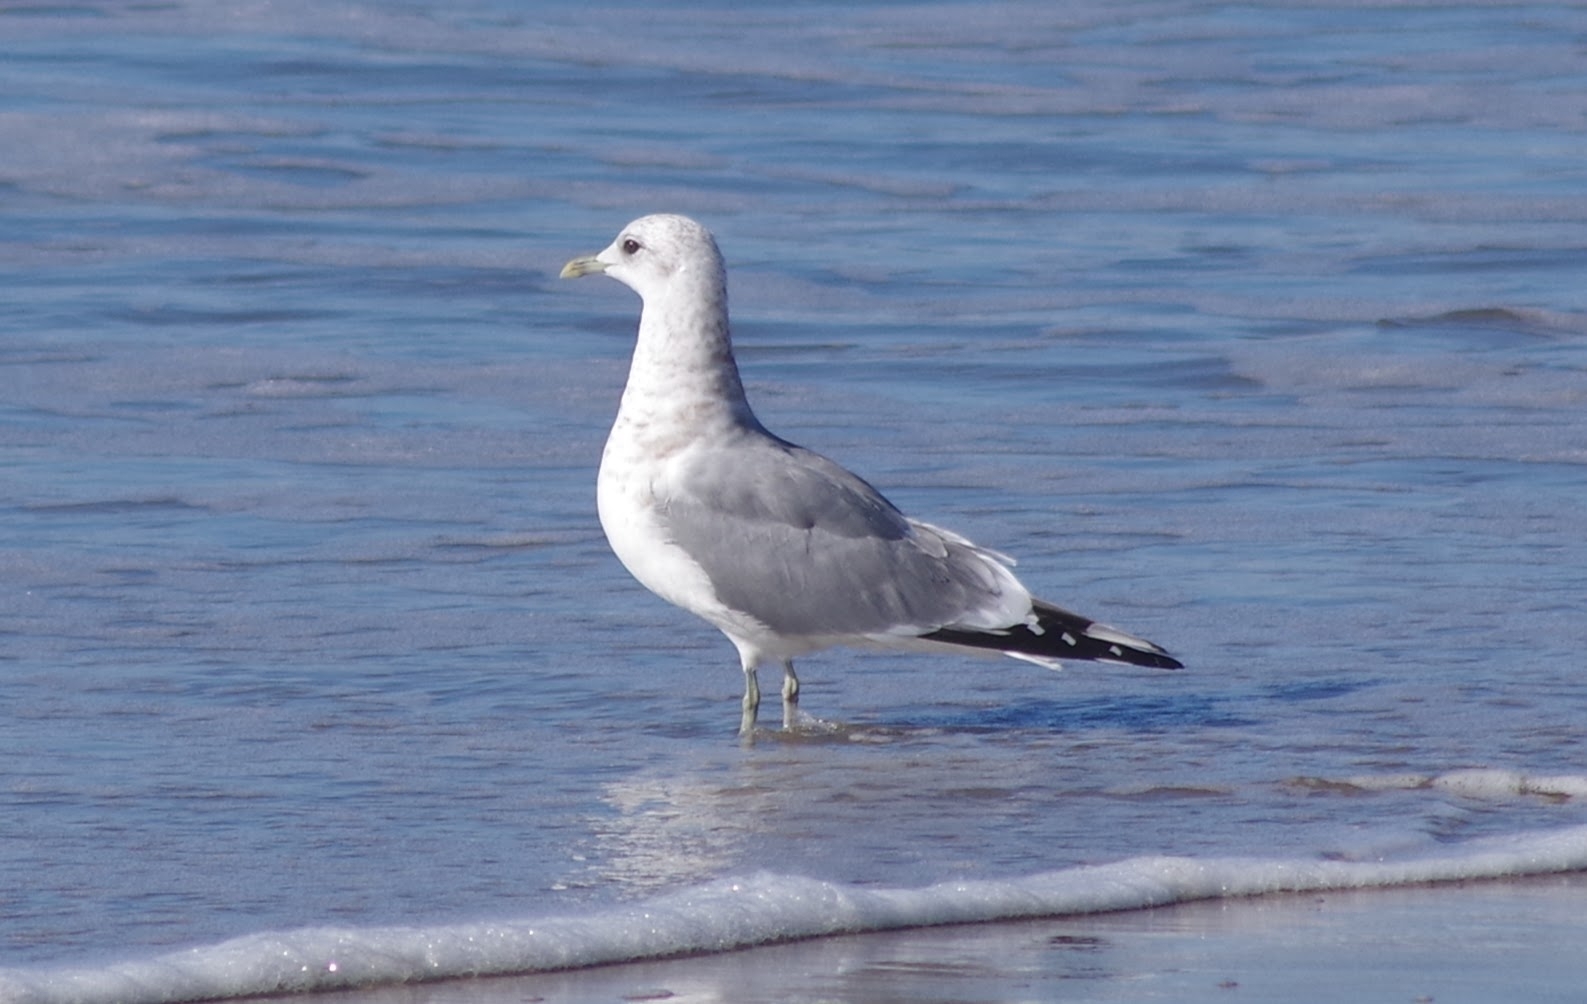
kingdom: Animalia
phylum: Chordata
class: Aves
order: Charadriiformes
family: Laridae
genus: Larus
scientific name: Larus brachyrhynchus
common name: Short-billed gull
